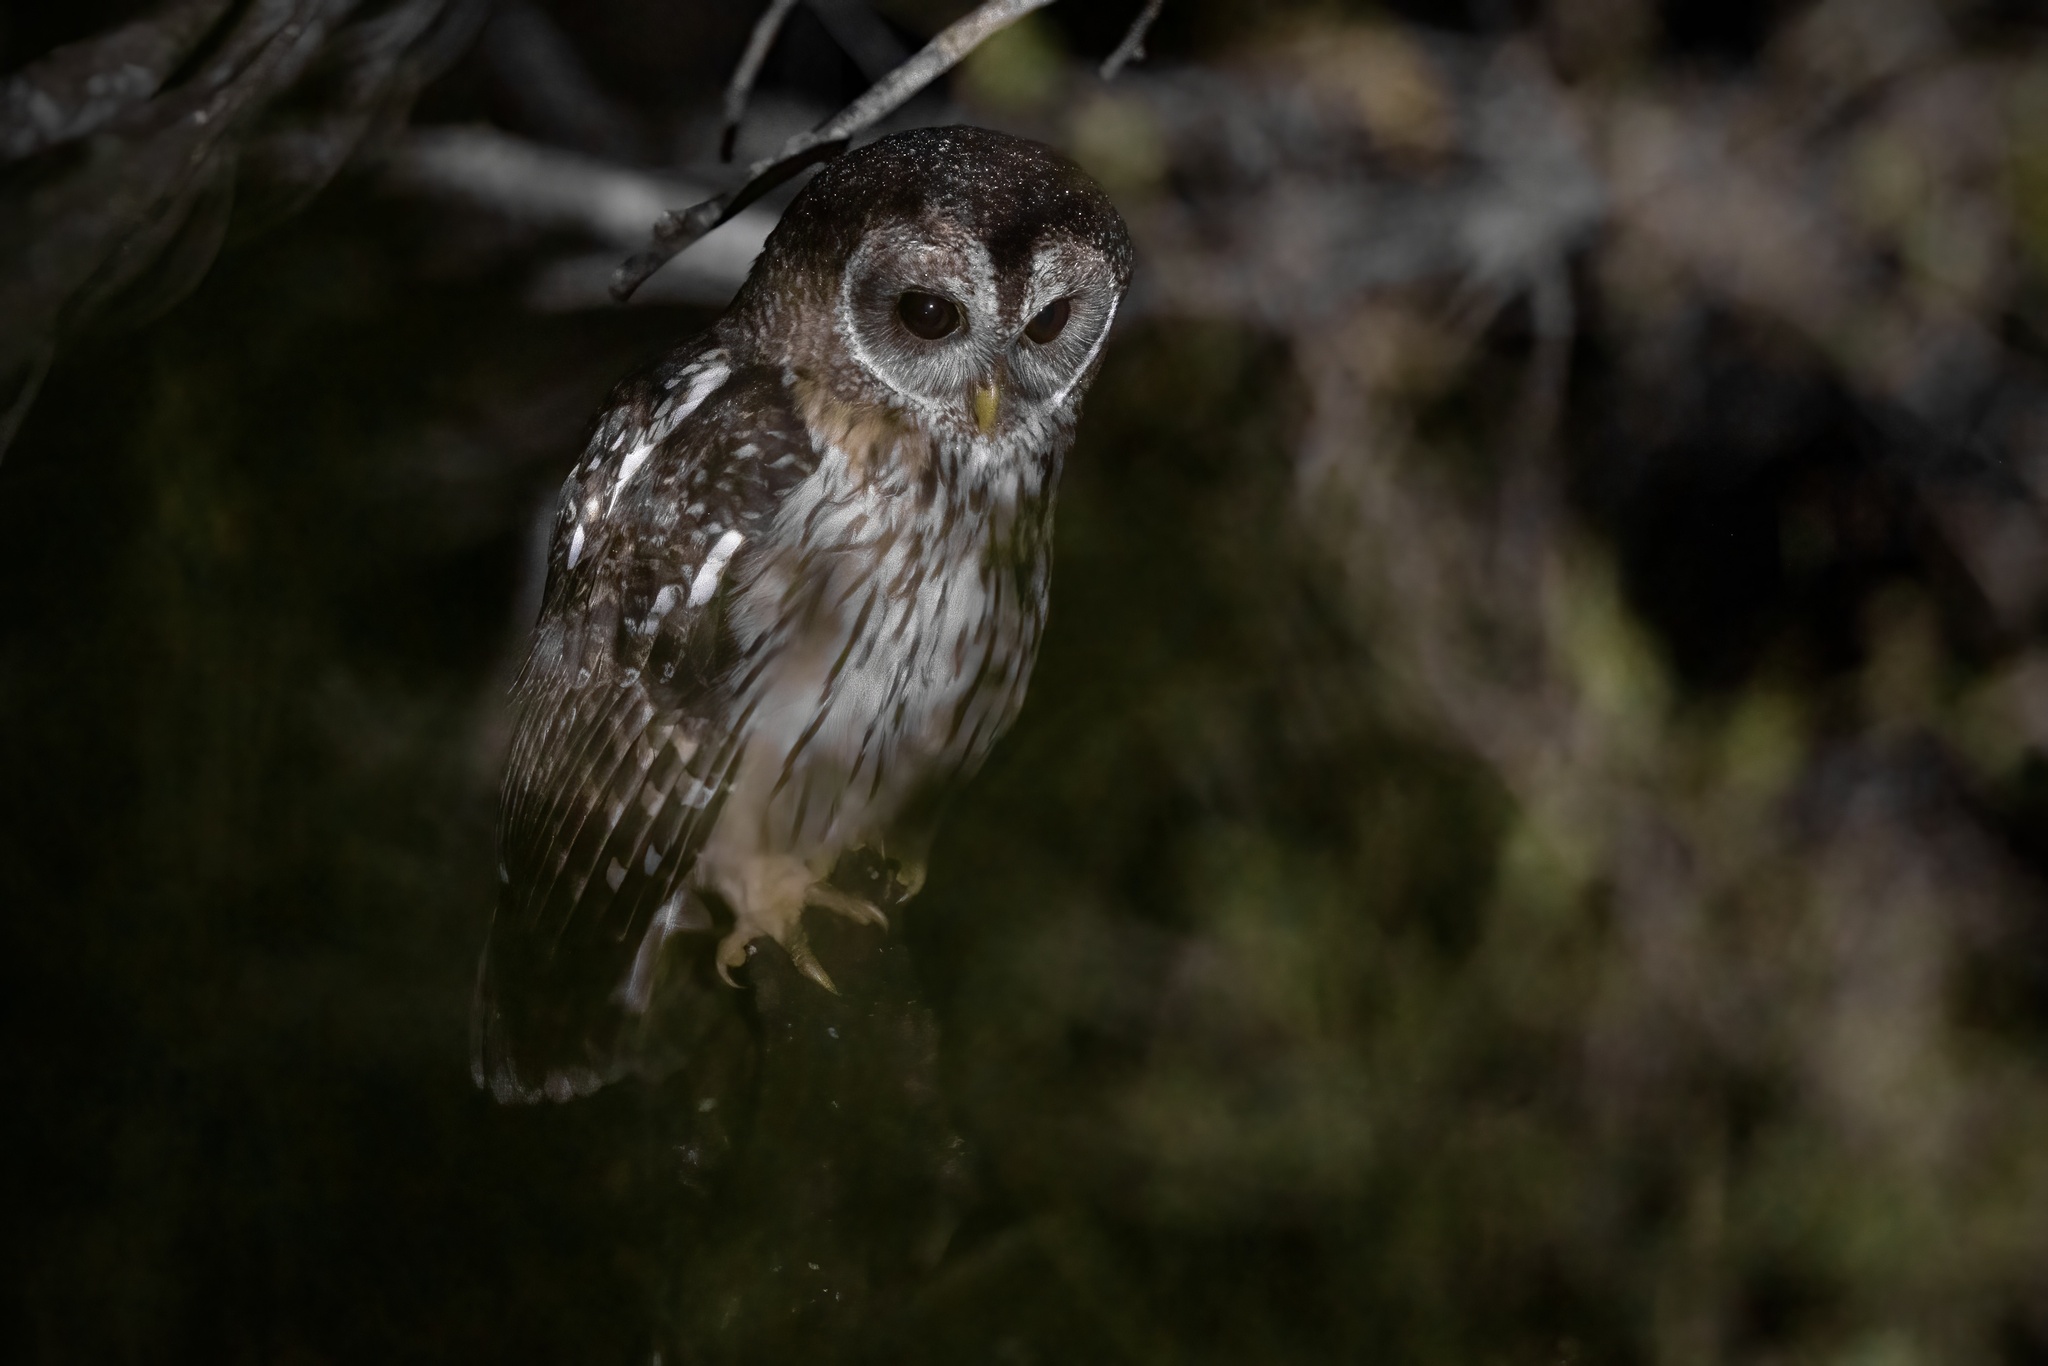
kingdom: Animalia
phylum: Chordata
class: Aves
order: Strigiformes
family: Strigidae
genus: Strix
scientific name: Strix virgata
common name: Mottled owl
